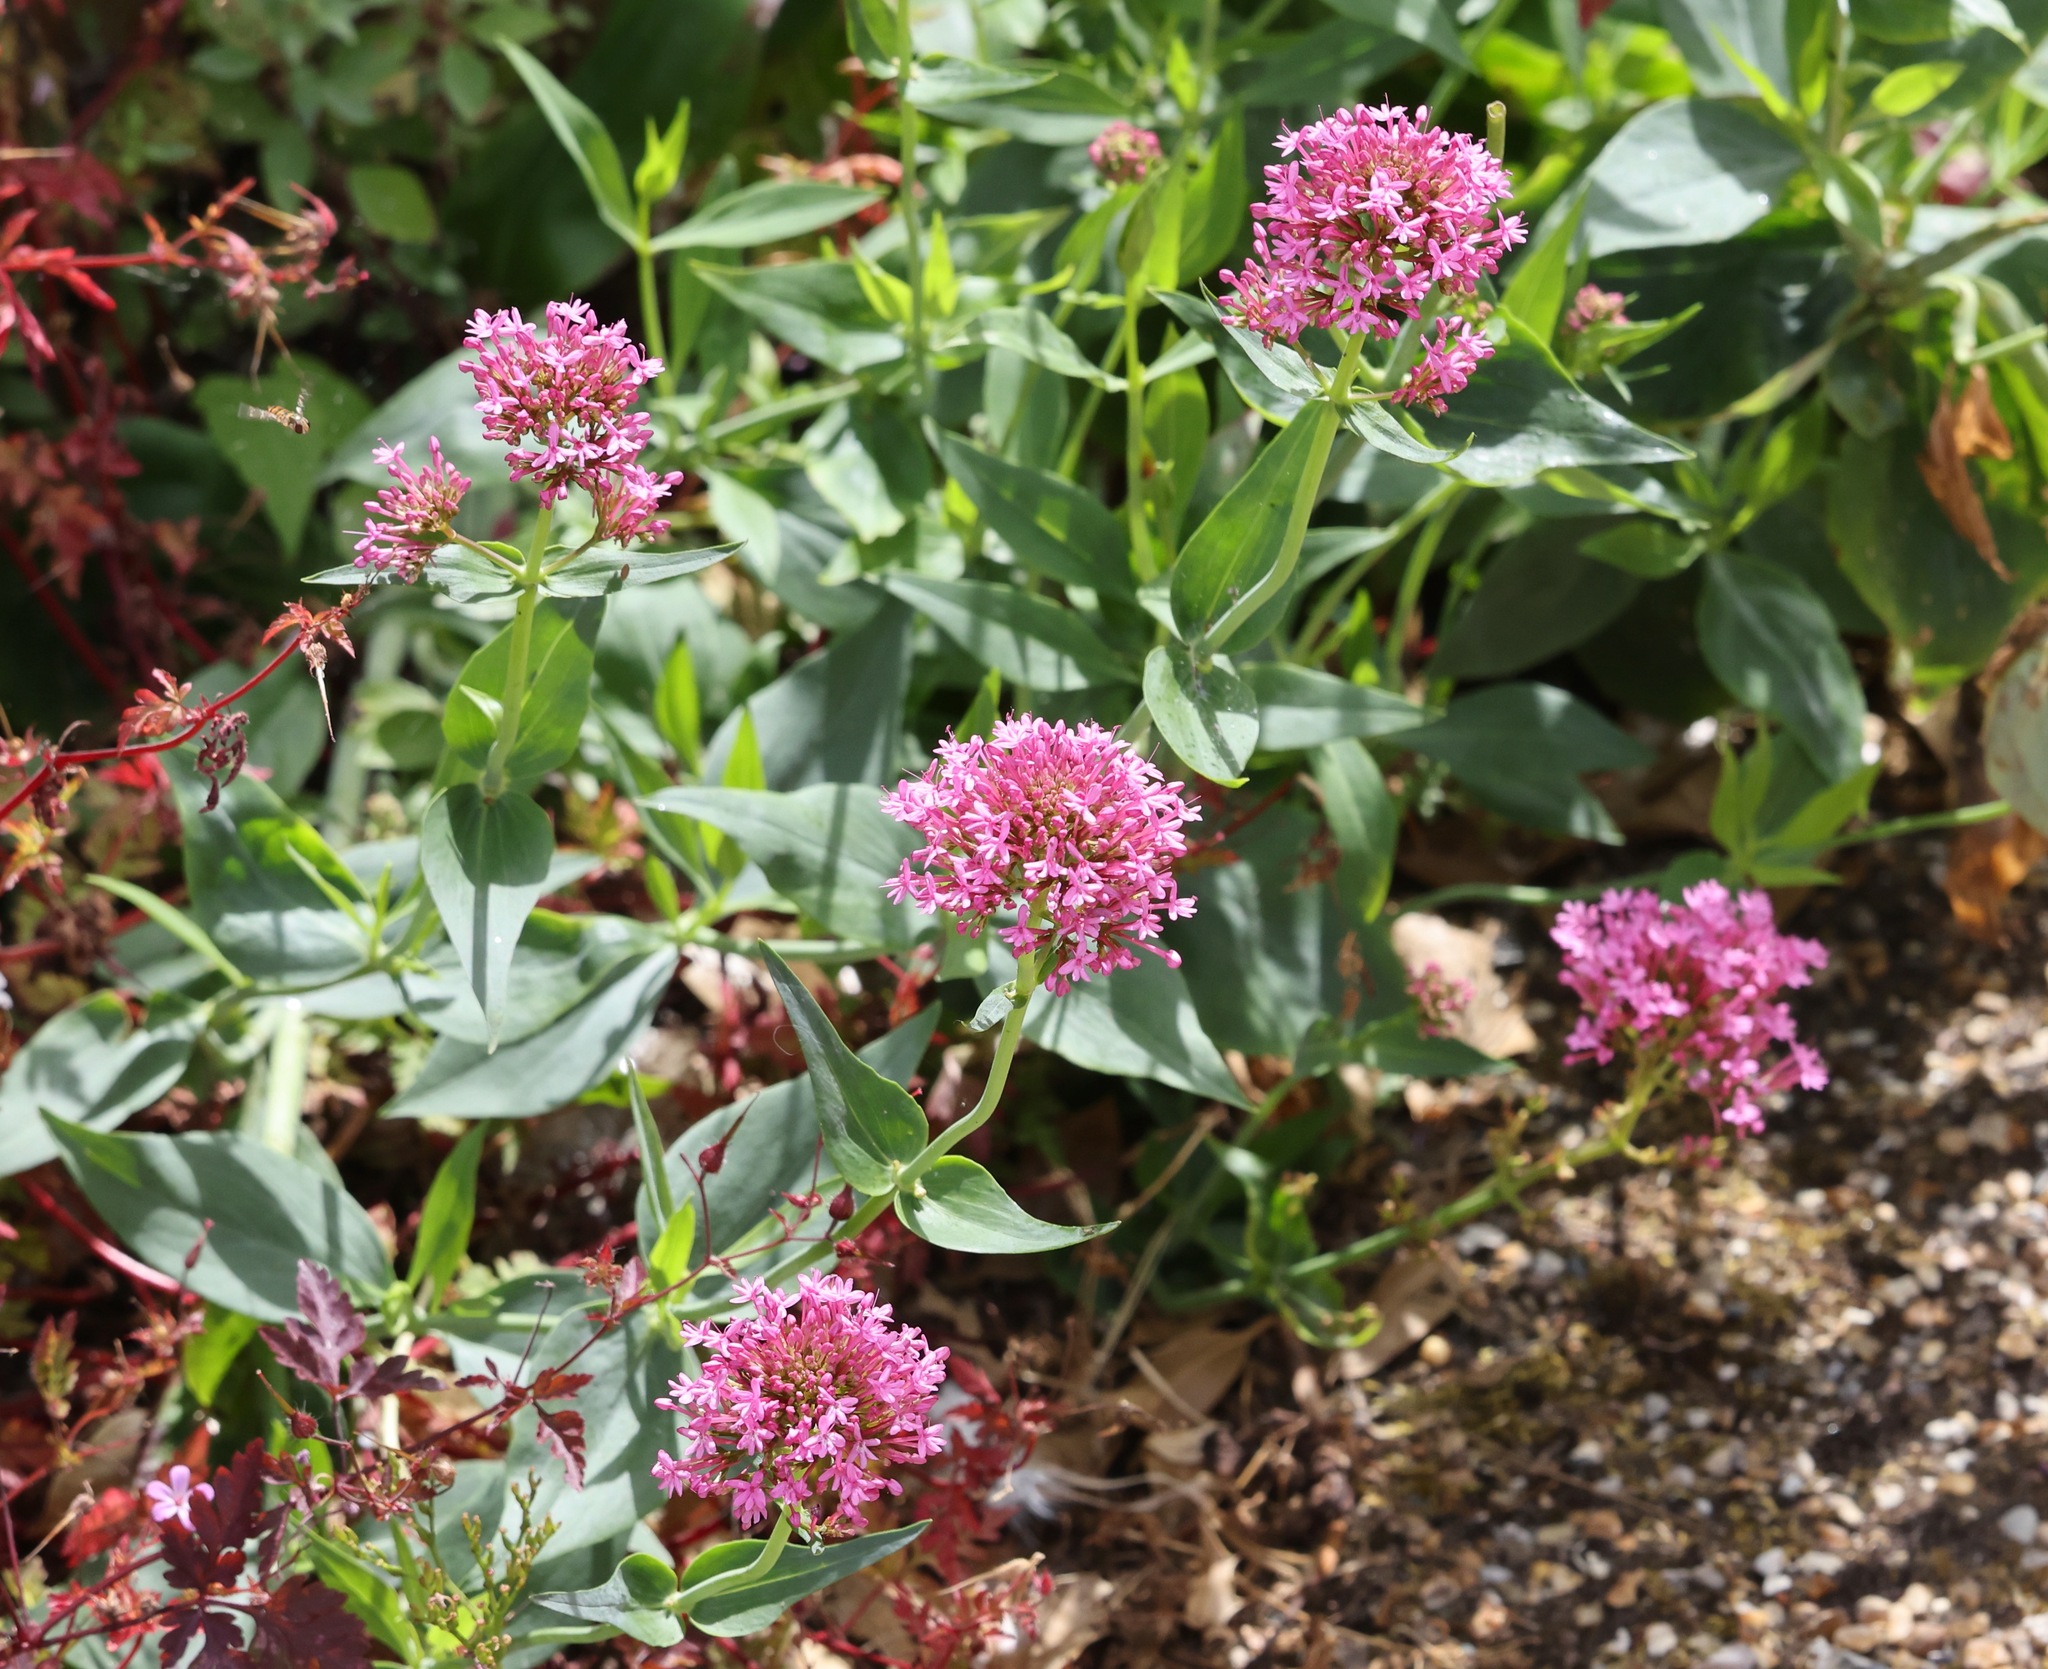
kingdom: Plantae
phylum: Tracheophyta
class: Magnoliopsida
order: Dipsacales
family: Caprifoliaceae
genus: Centranthus
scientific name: Centranthus ruber
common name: Red valerian
